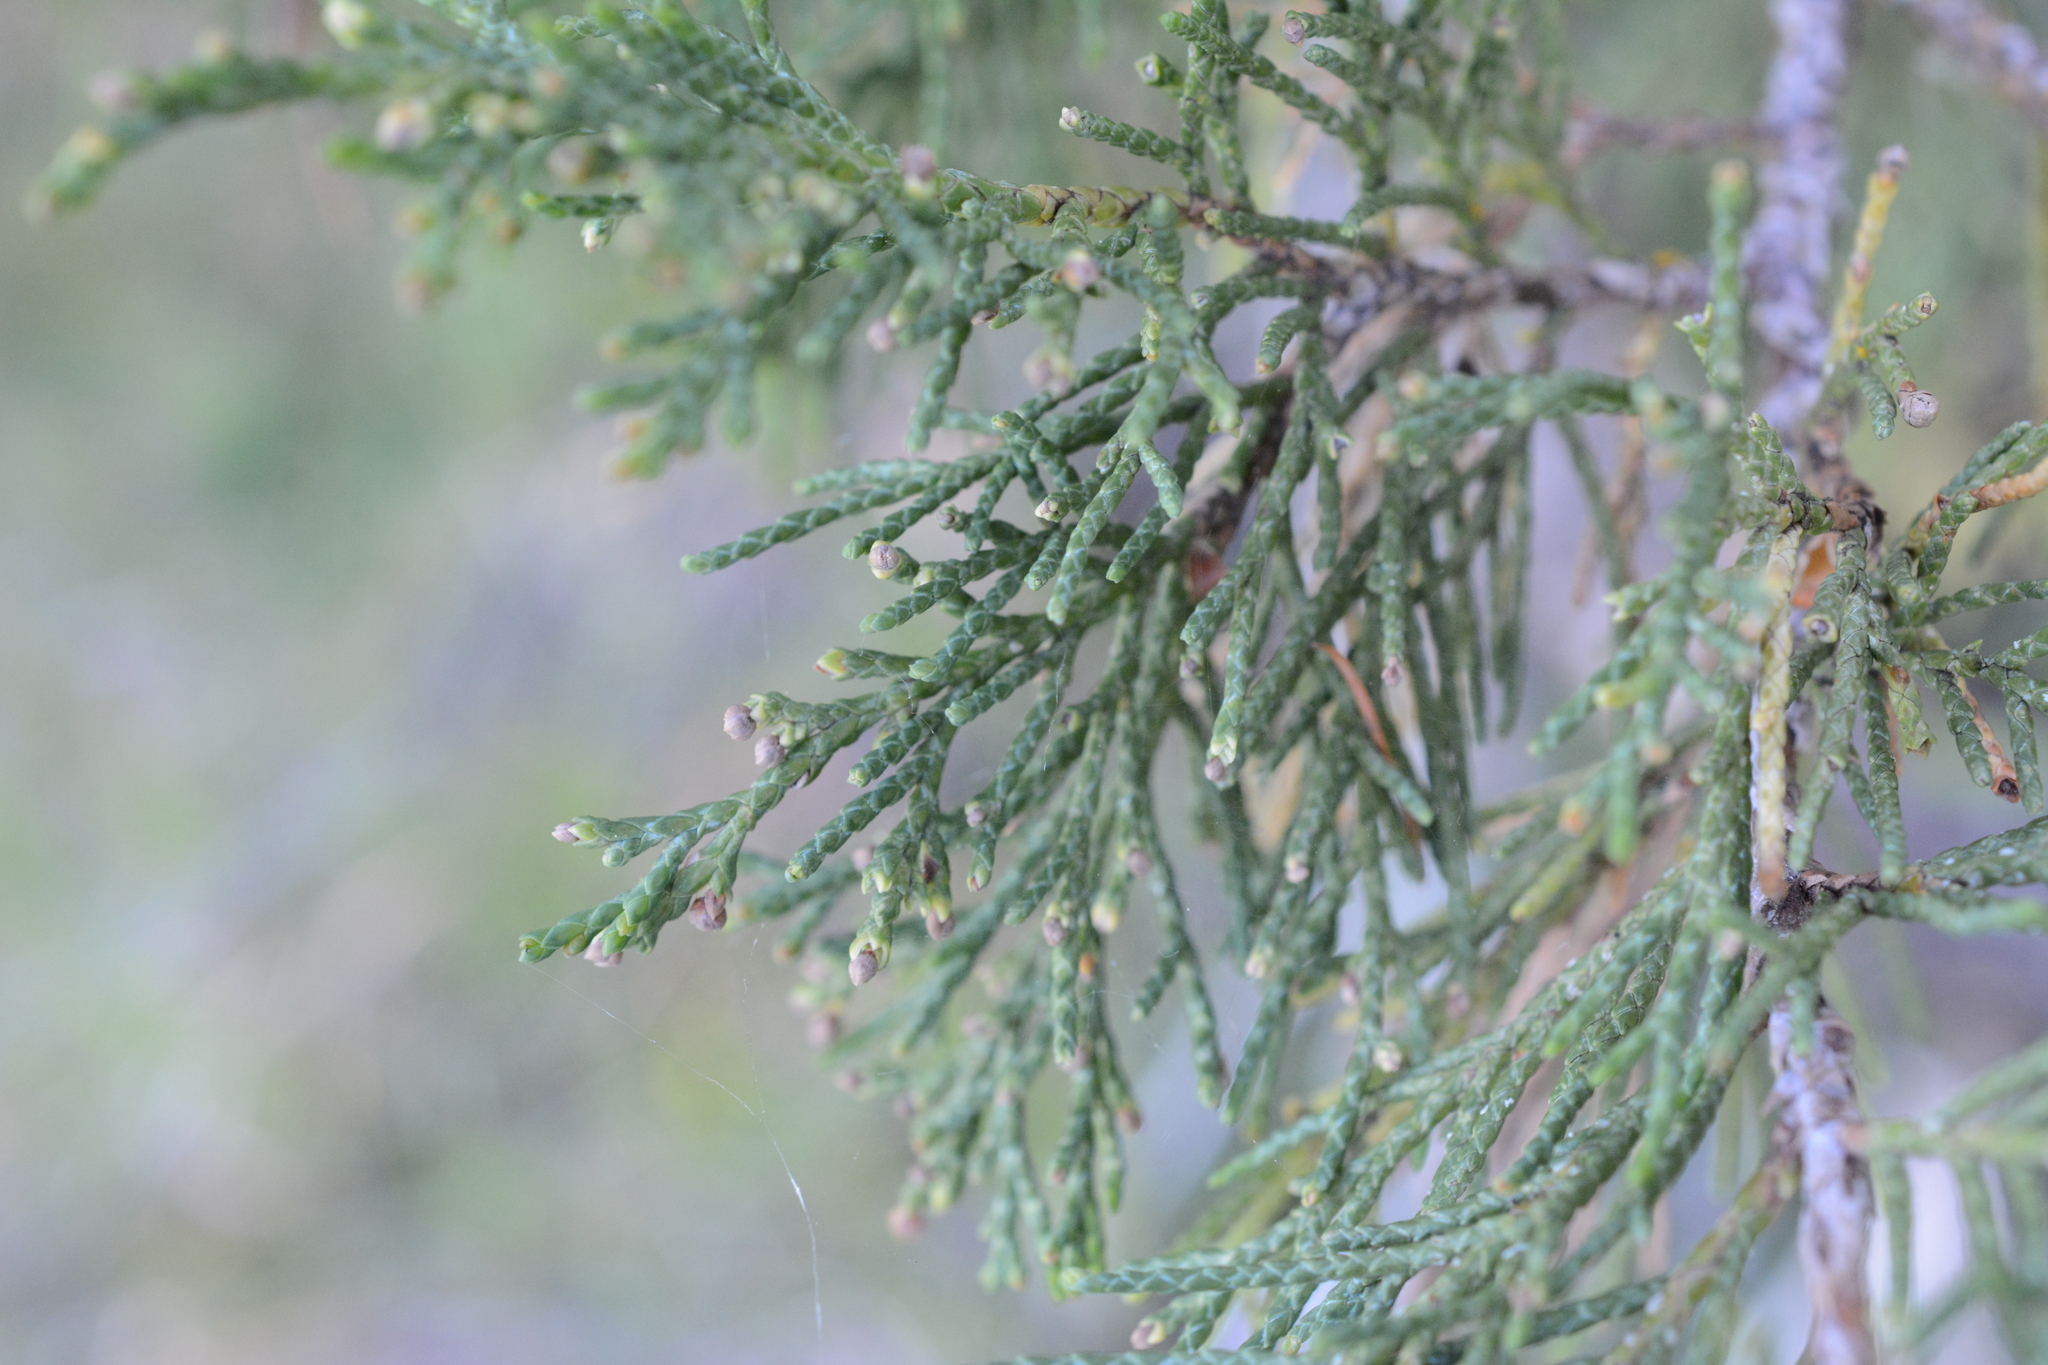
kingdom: Plantae
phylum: Tracheophyta
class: Pinopsida
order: Pinales
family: Cupressaceae
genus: Juniperus
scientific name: Juniperus scopulorum
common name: Rocky mountain juniper
